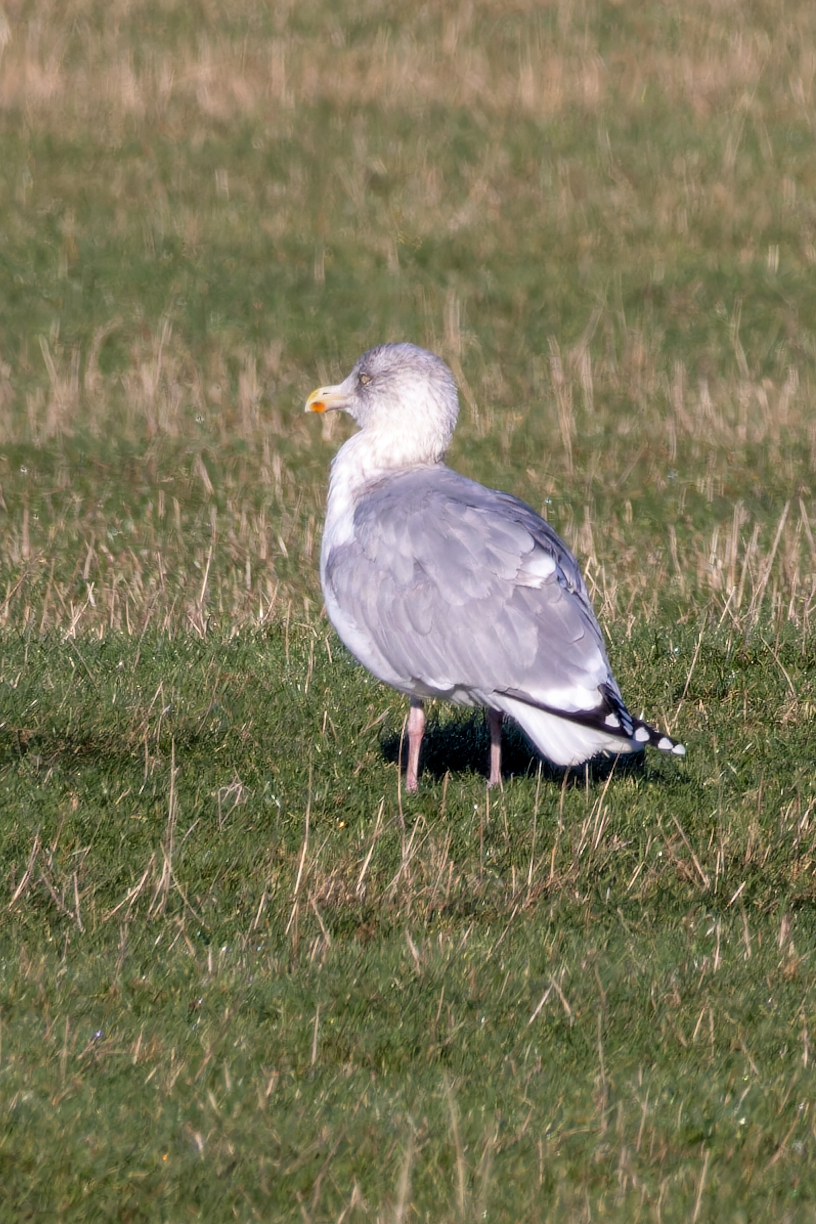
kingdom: Animalia
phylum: Chordata
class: Aves
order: Charadriiformes
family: Laridae
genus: Larus
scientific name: Larus argentatus
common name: Herring gull
